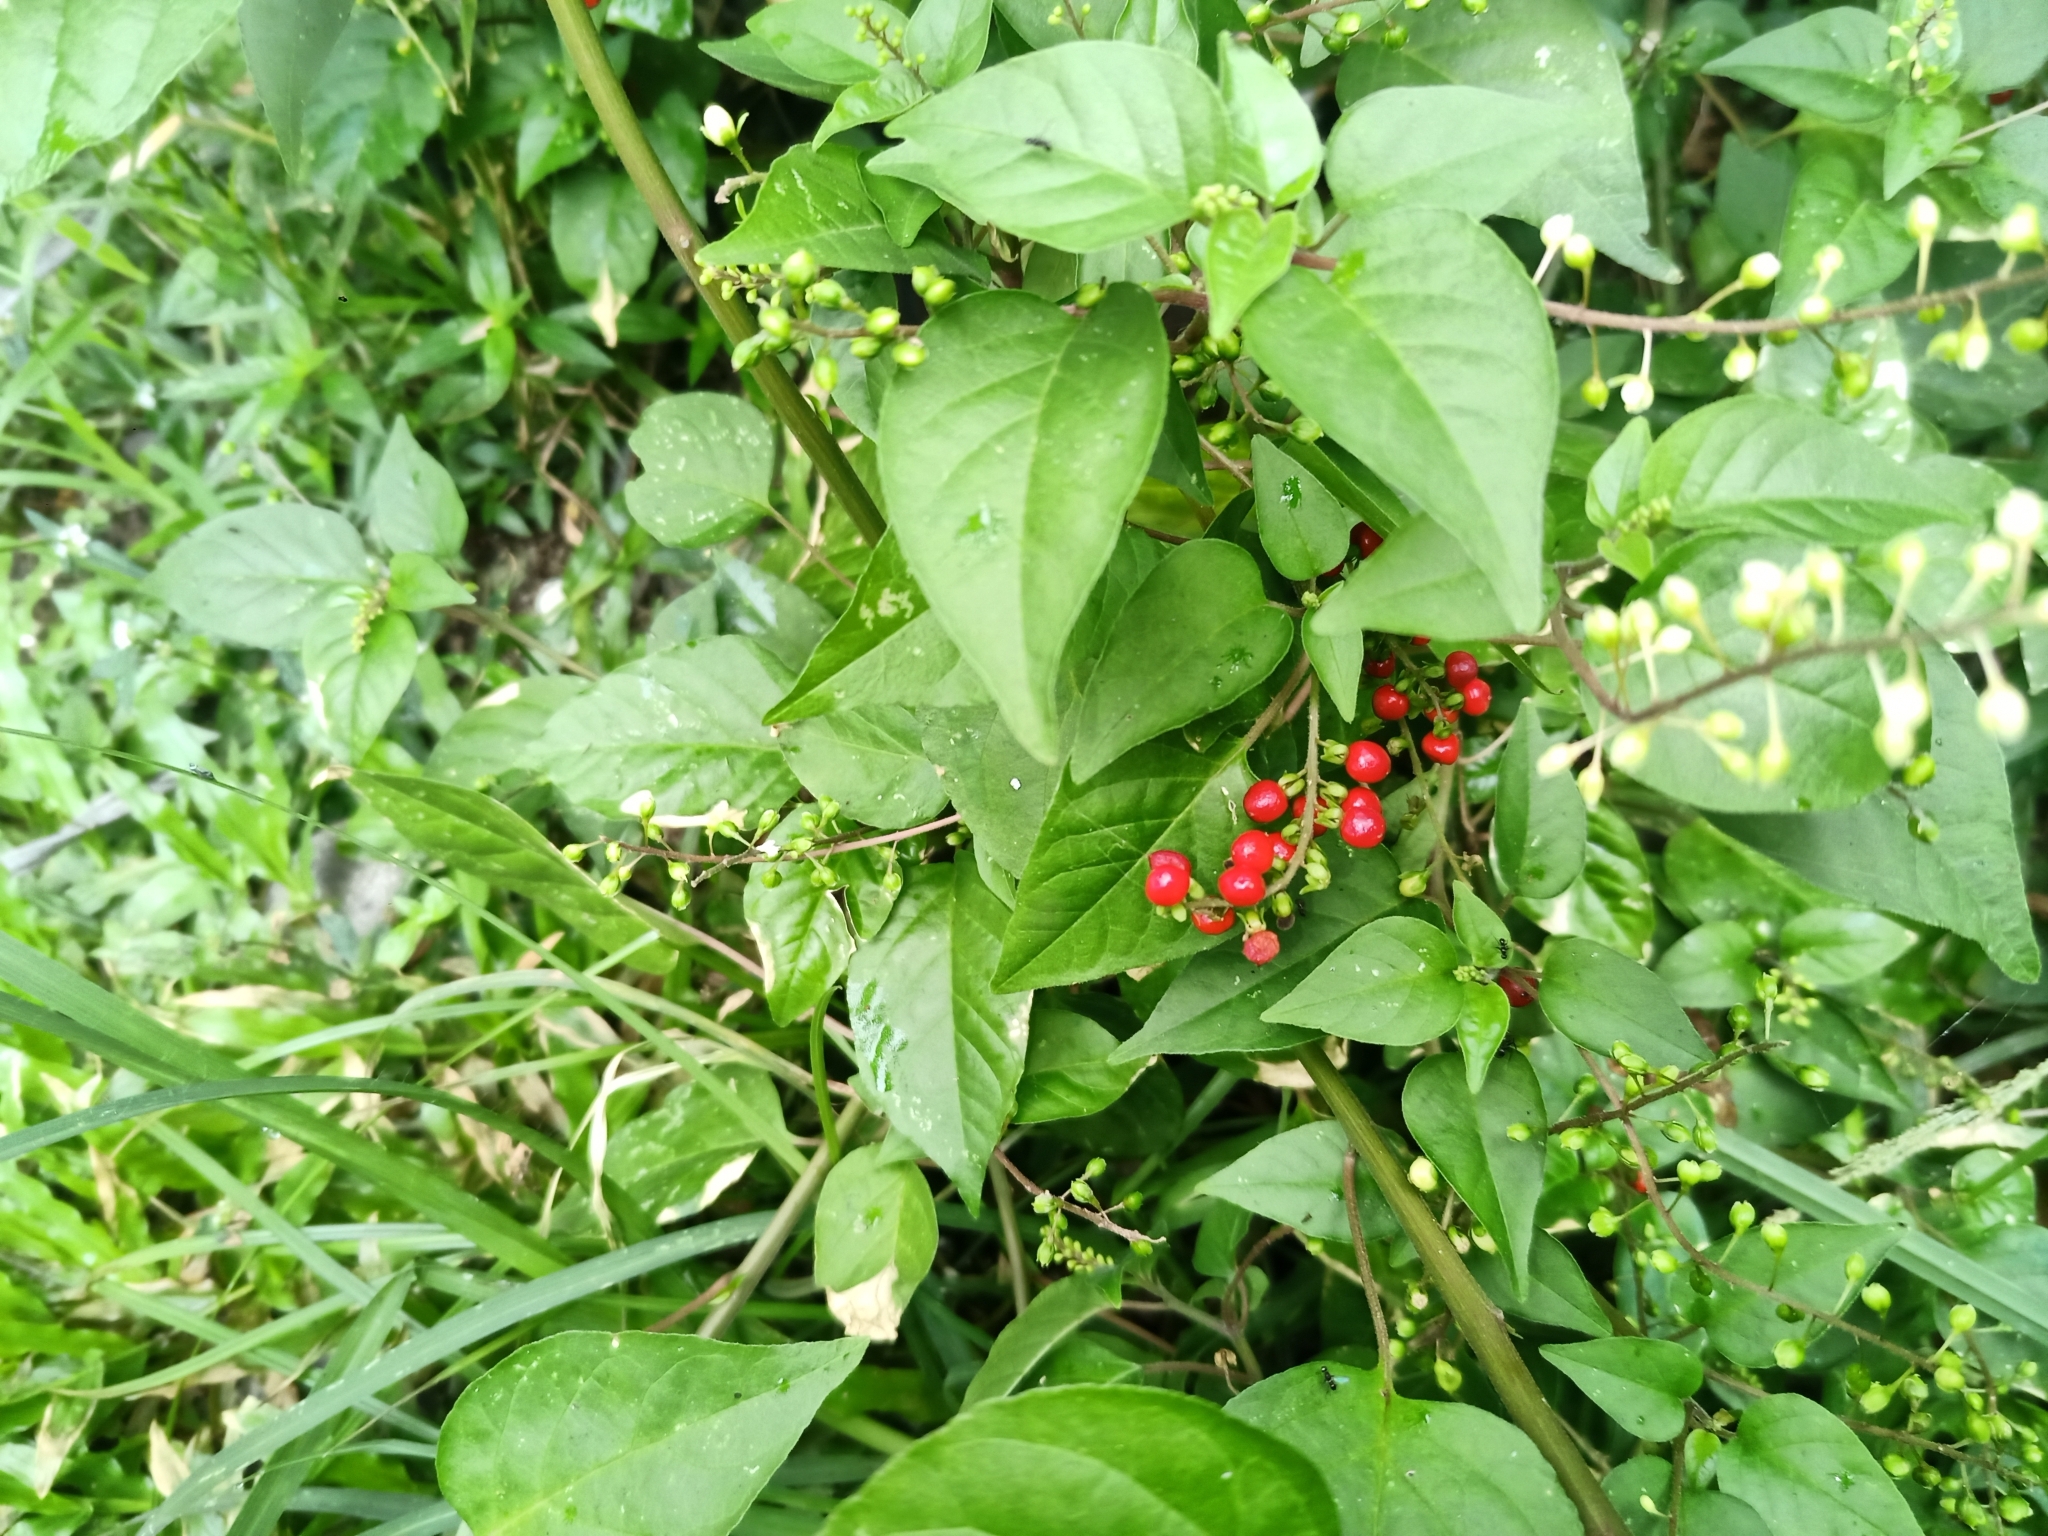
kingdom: Plantae
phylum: Tracheophyta
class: Magnoliopsida
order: Caryophyllales
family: Phytolaccaceae
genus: Rivina
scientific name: Rivina humilis
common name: Rougeplant
